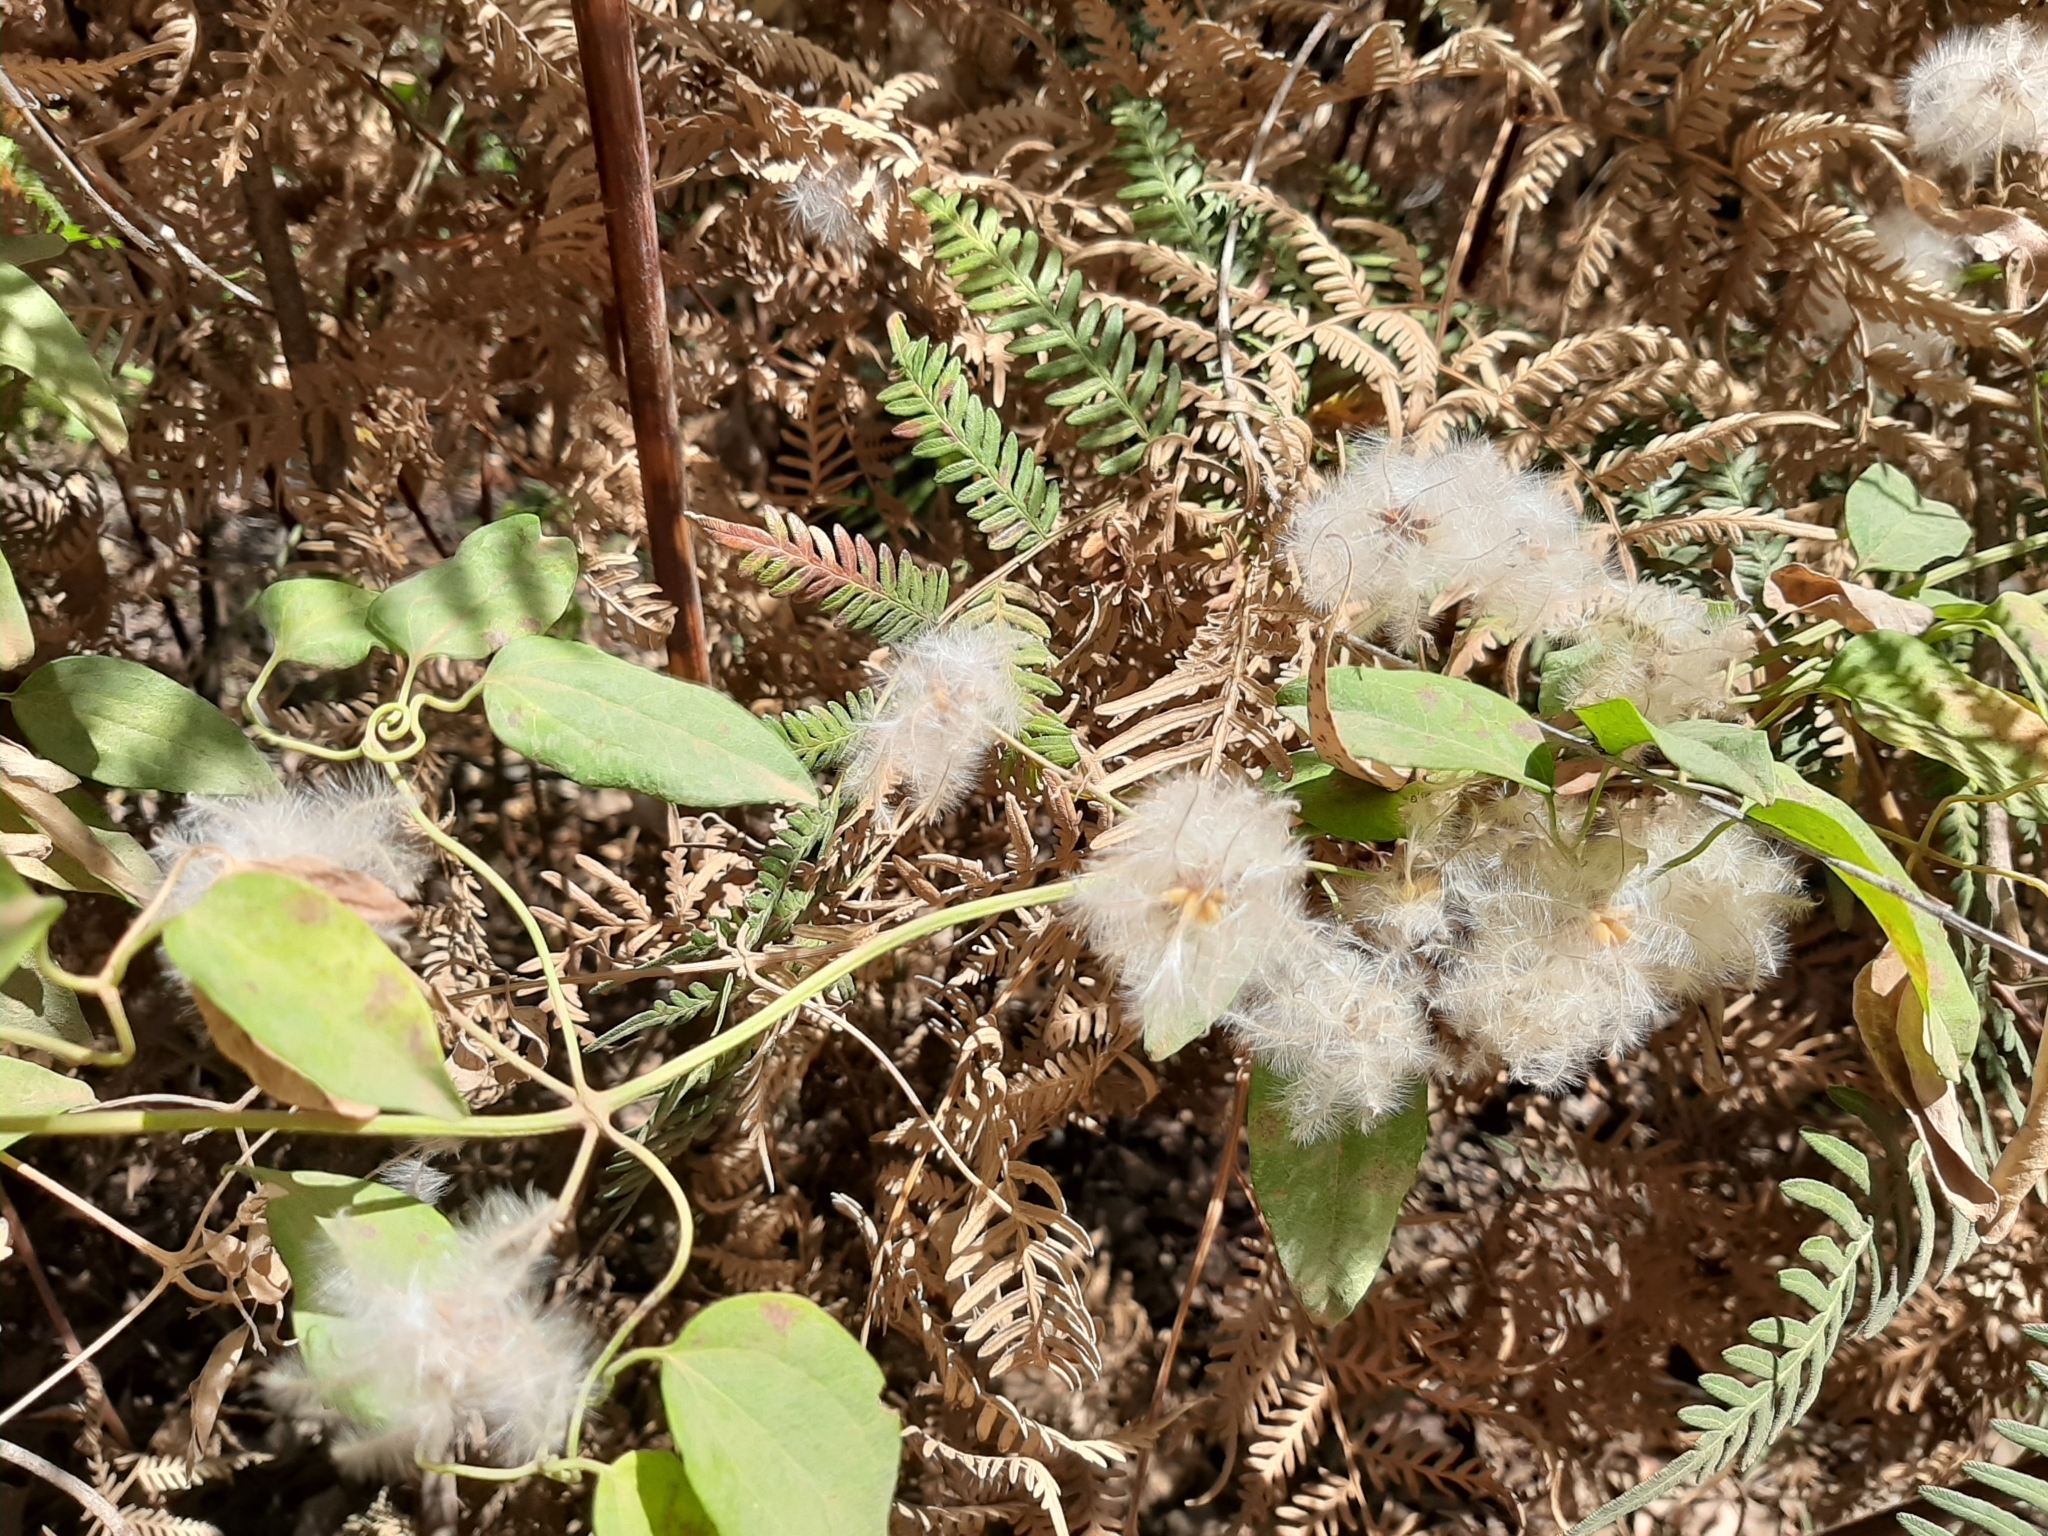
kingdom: Plantae
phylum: Tracheophyta
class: Magnoliopsida
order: Ranunculales
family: Ranunculaceae
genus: Clematis
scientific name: Clematis pubescens
